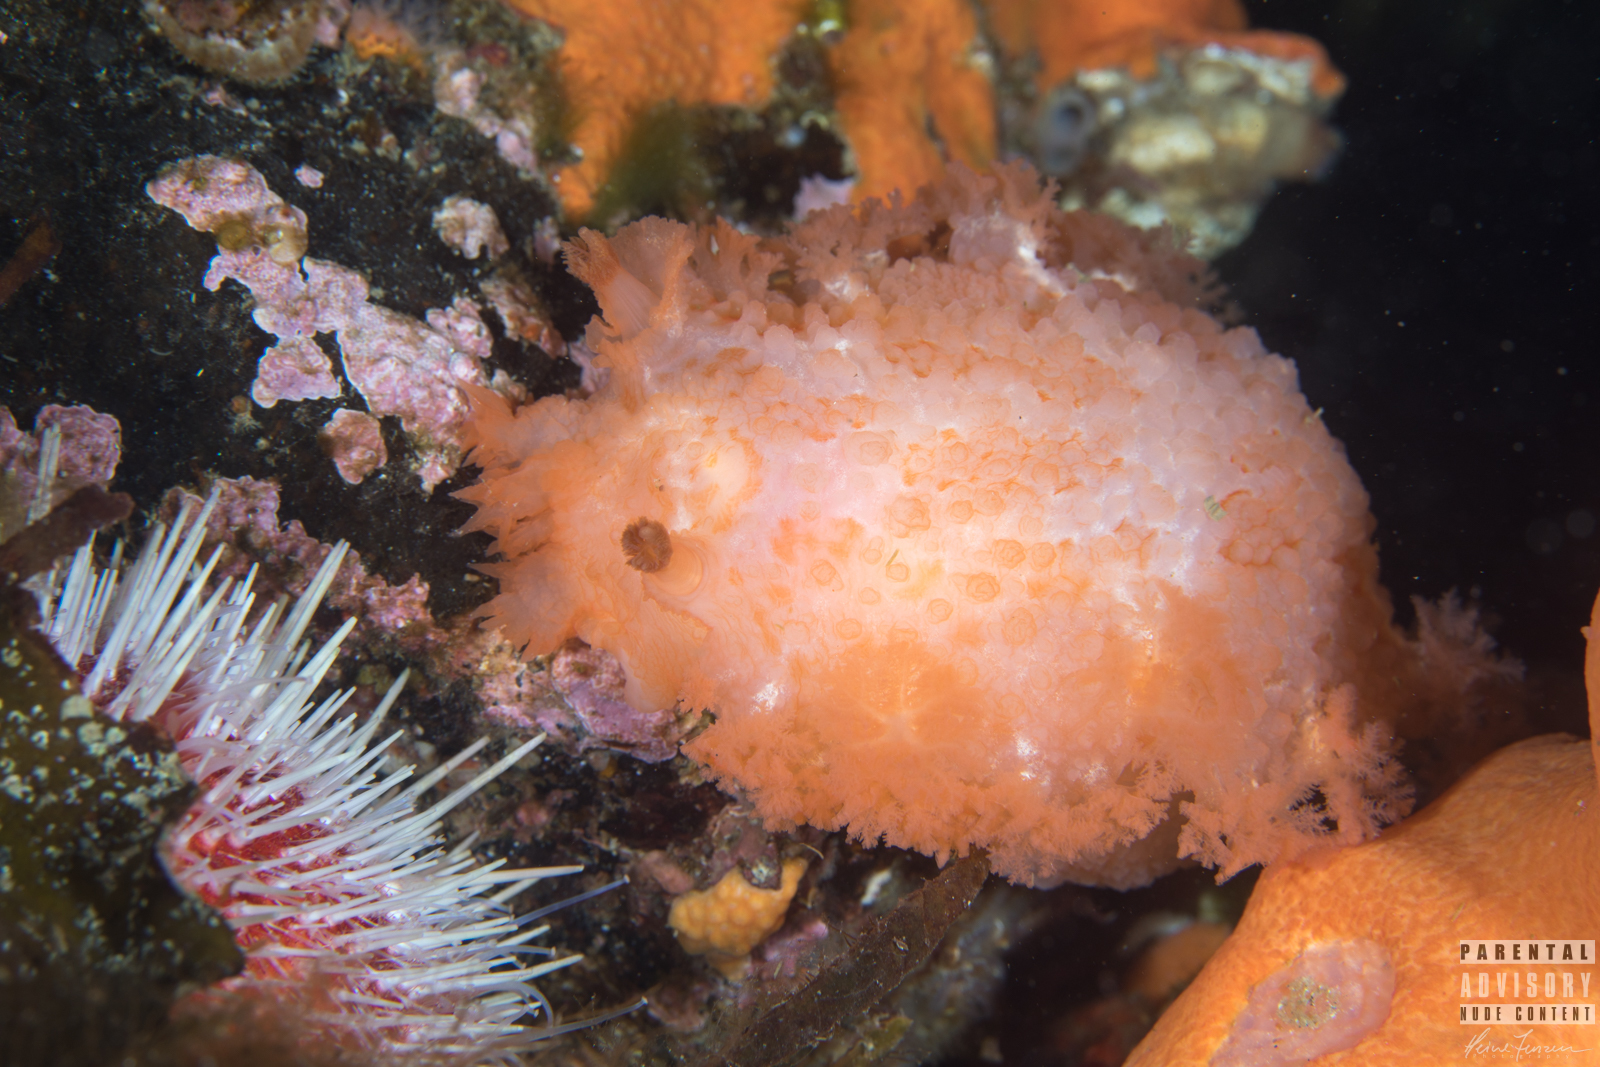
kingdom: Animalia
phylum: Mollusca
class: Gastropoda
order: Nudibranchia
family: Tritoniidae
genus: Tritonia
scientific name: Tritonia hombergii
